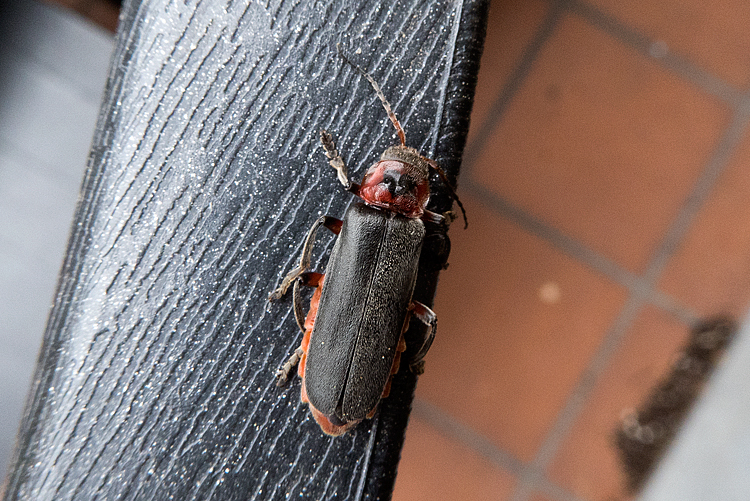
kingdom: Animalia
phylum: Arthropoda
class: Insecta
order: Coleoptera
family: Cantharidae
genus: Cantharis
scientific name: Cantharis rustica
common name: Soldier beetle
